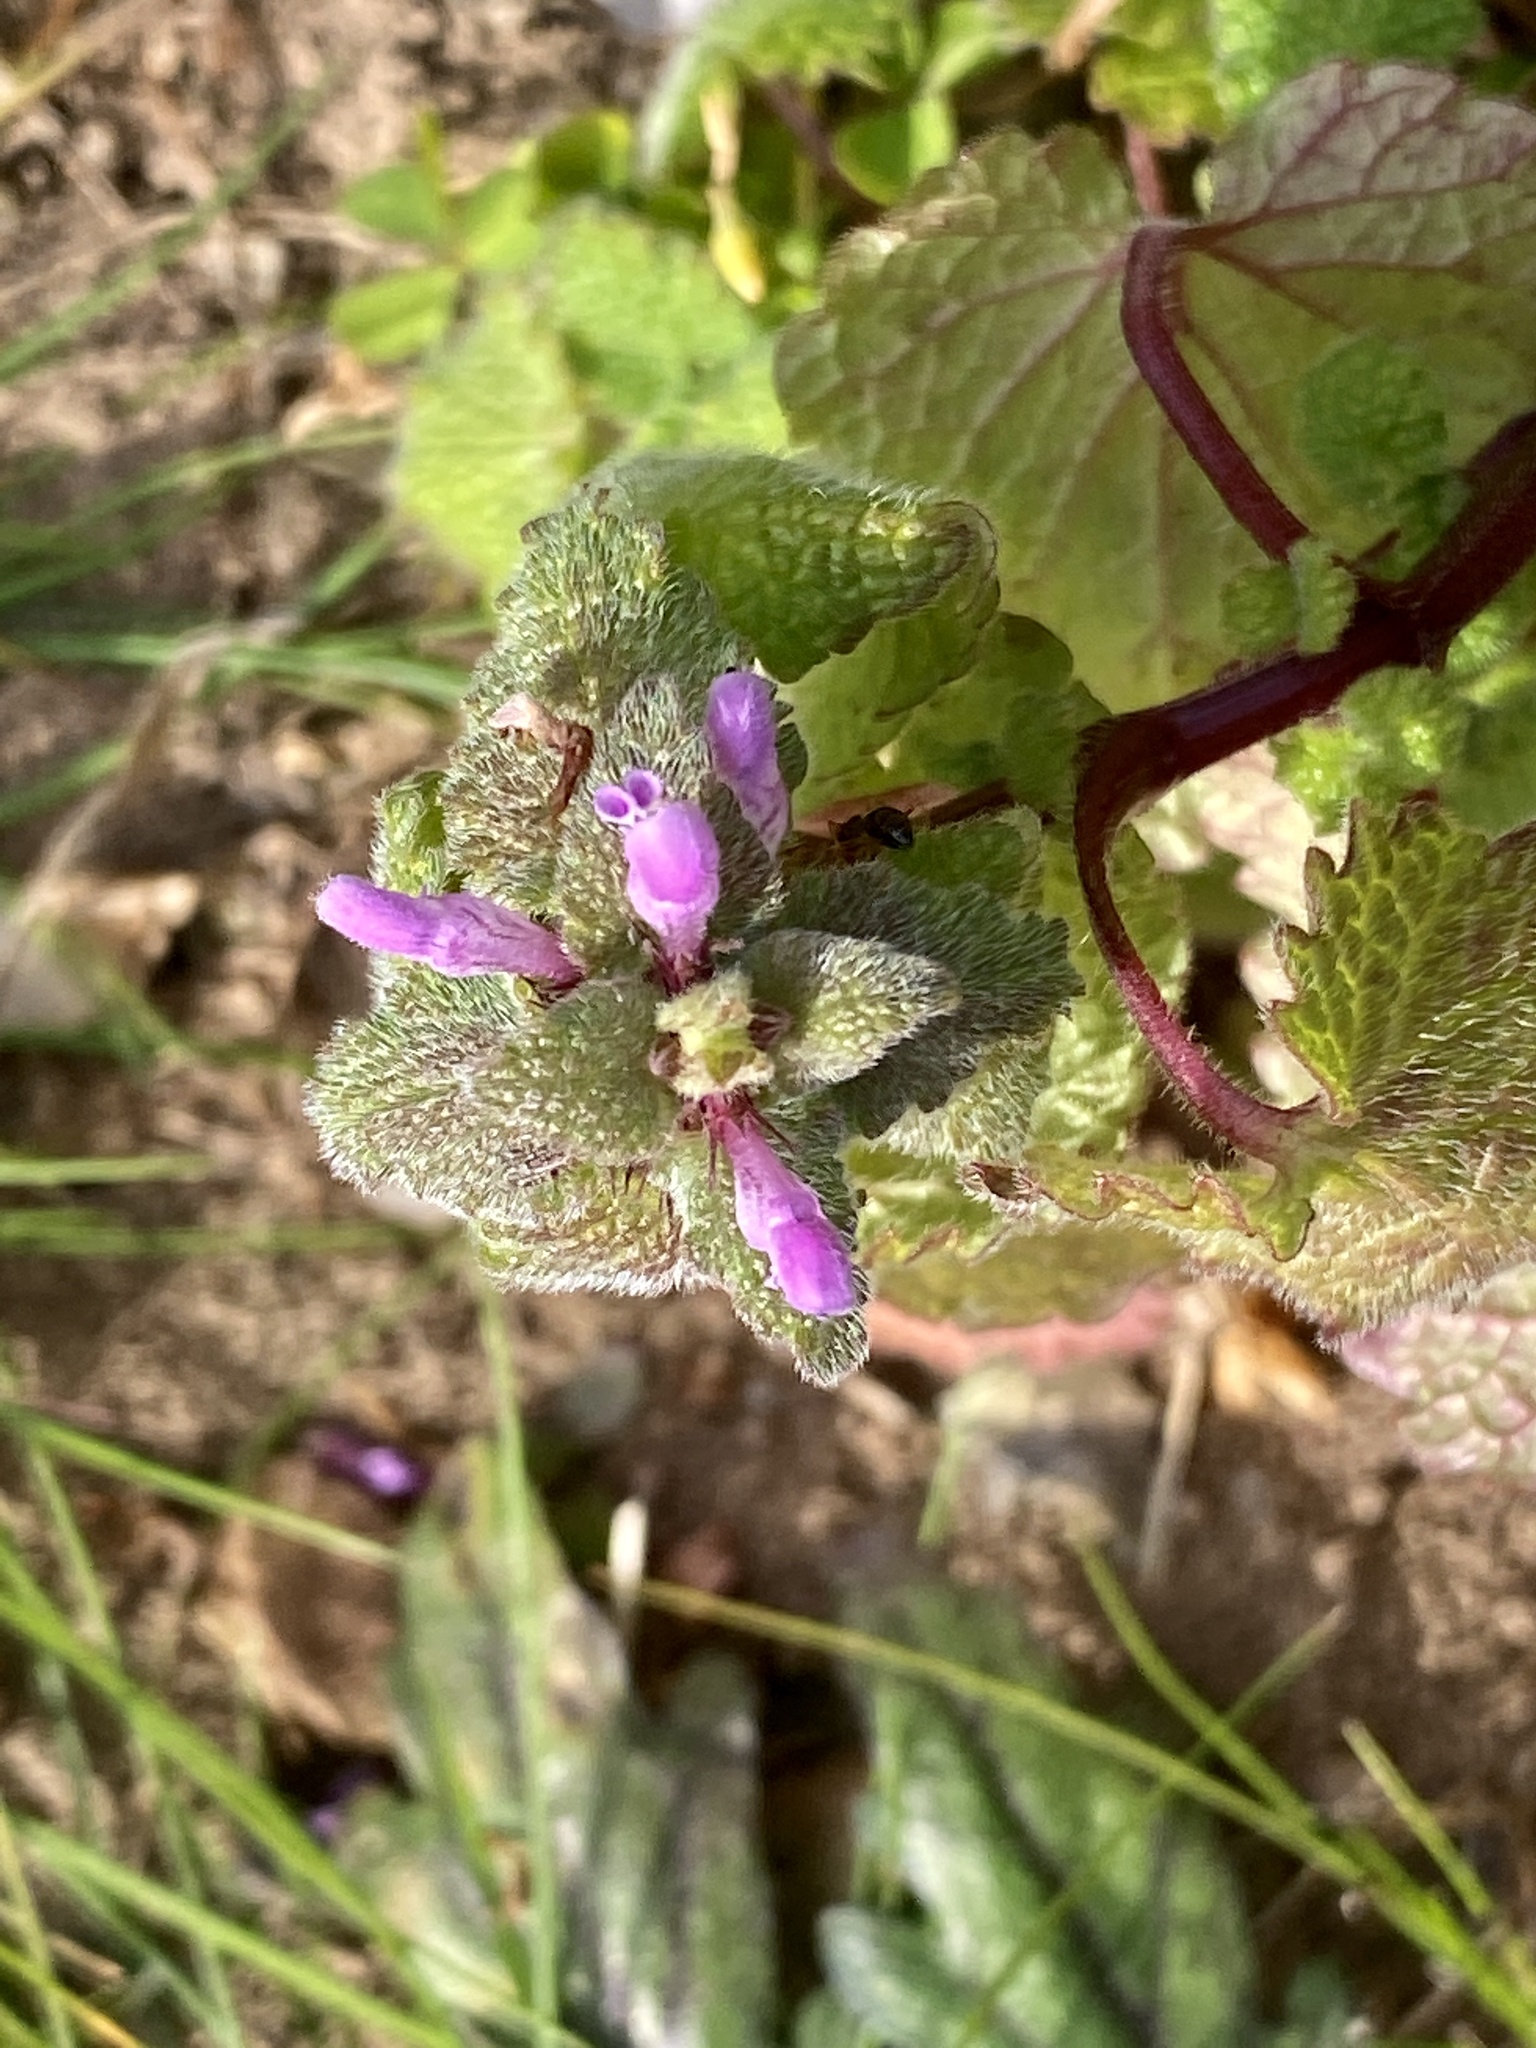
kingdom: Plantae
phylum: Tracheophyta
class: Magnoliopsida
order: Lamiales
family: Lamiaceae
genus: Lamium
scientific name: Lamium purpureum
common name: Red dead-nettle
